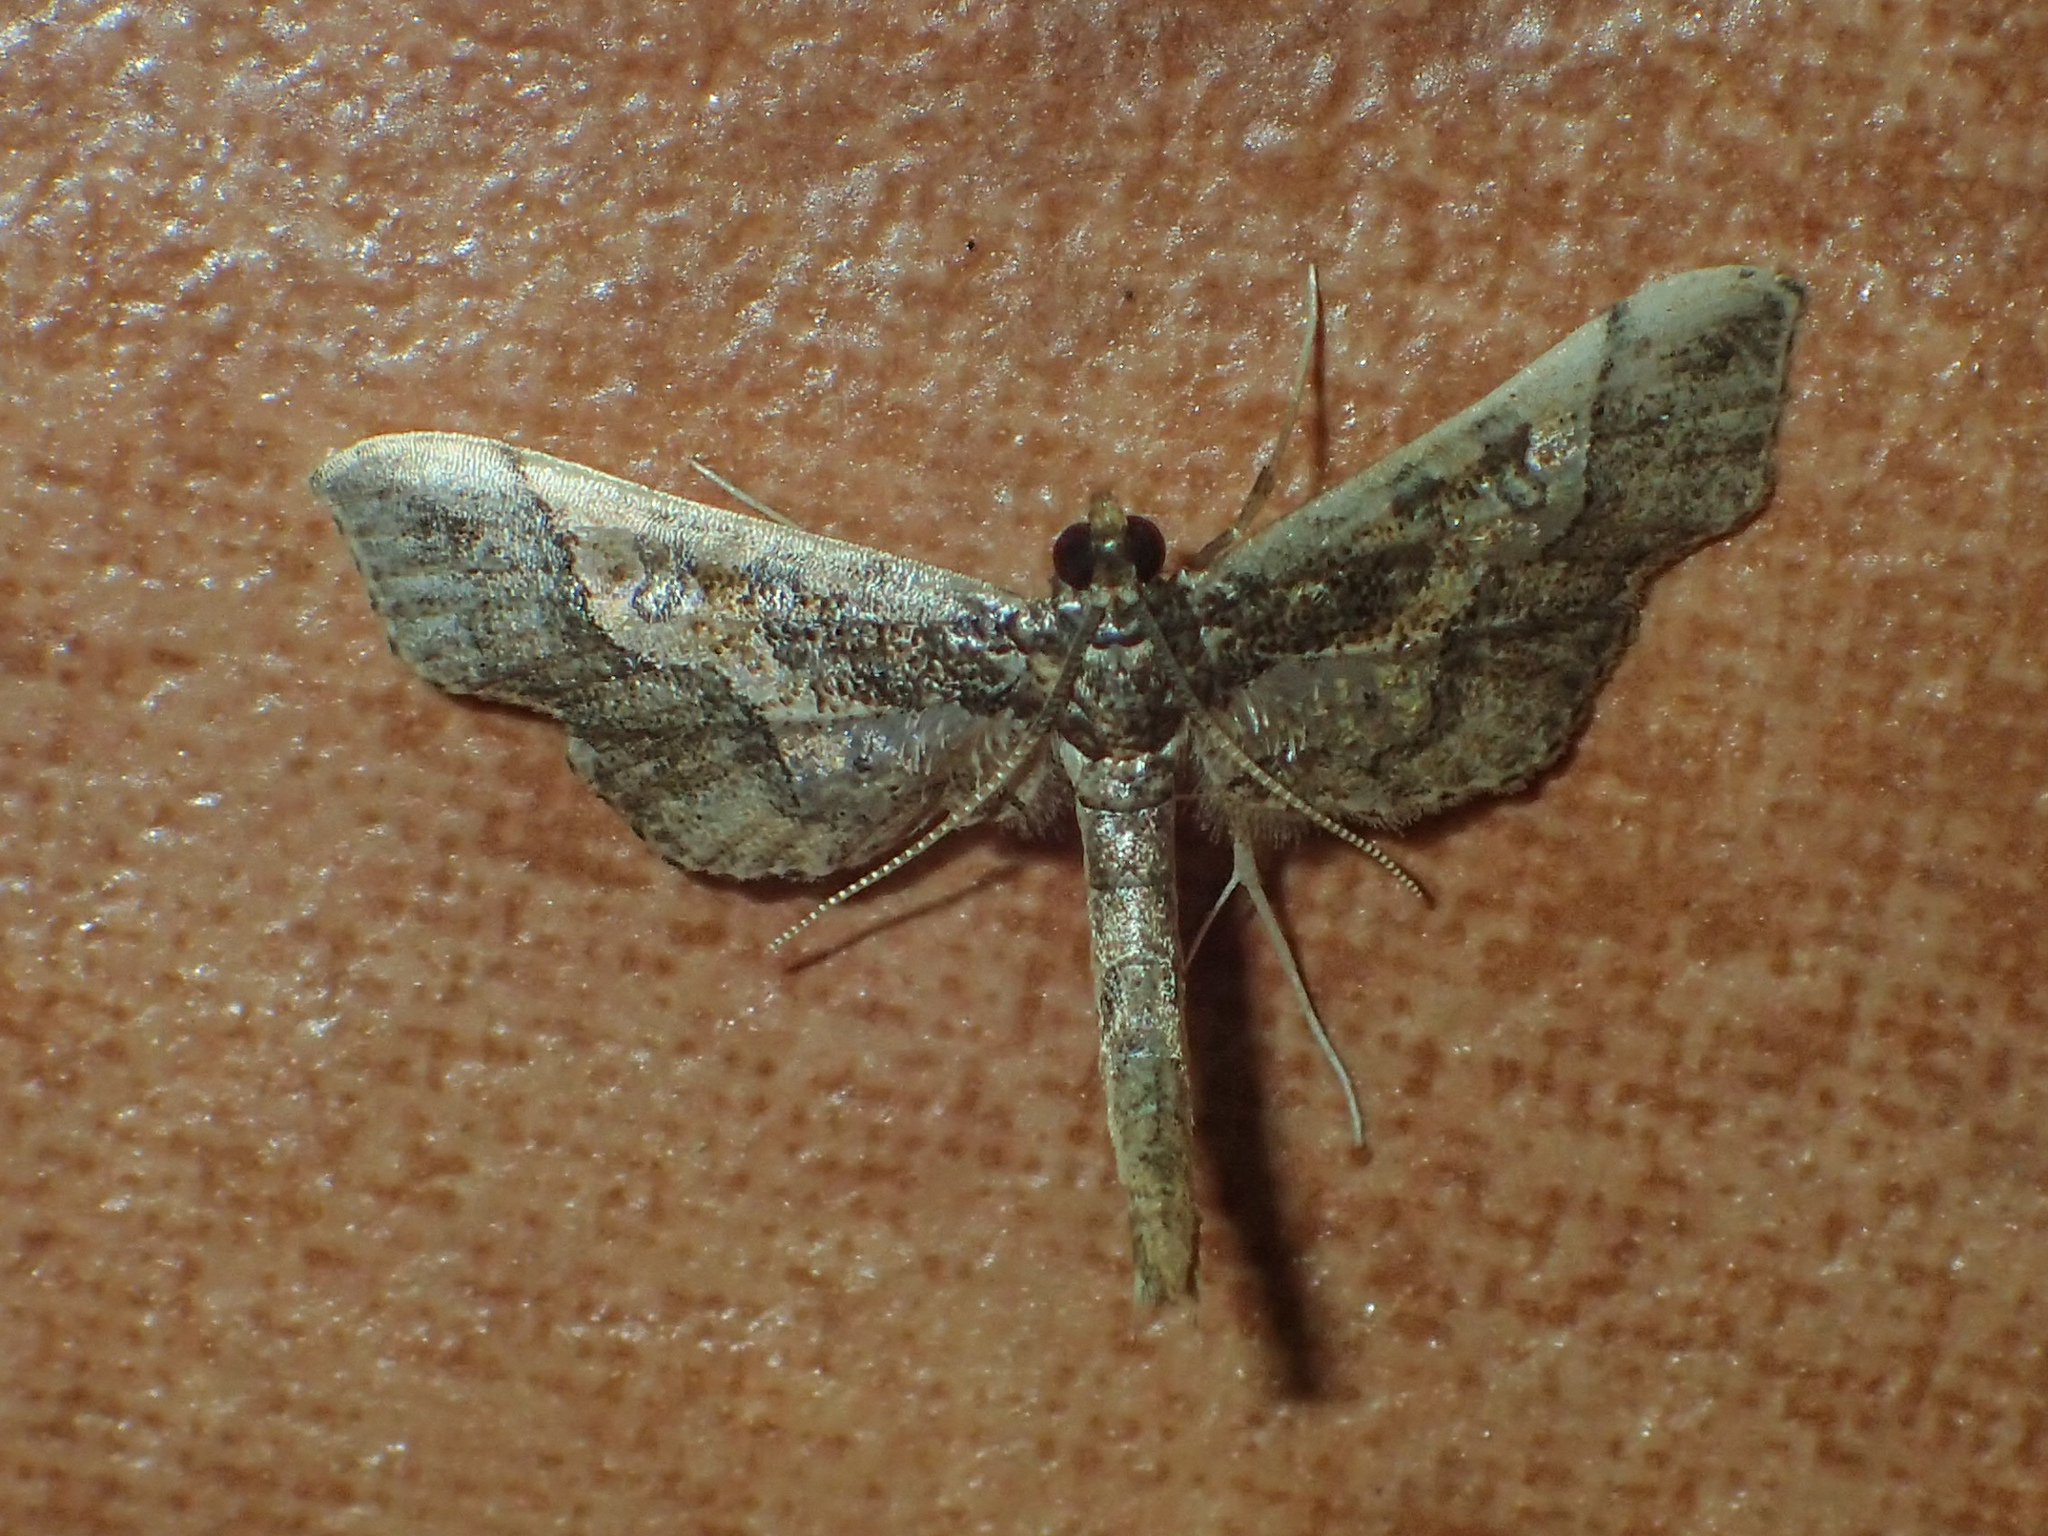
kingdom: Animalia
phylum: Arthropoda
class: Insecta
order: Lepidoptera
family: Crambidae
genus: Hydriris
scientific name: Hydriris ornatalis
